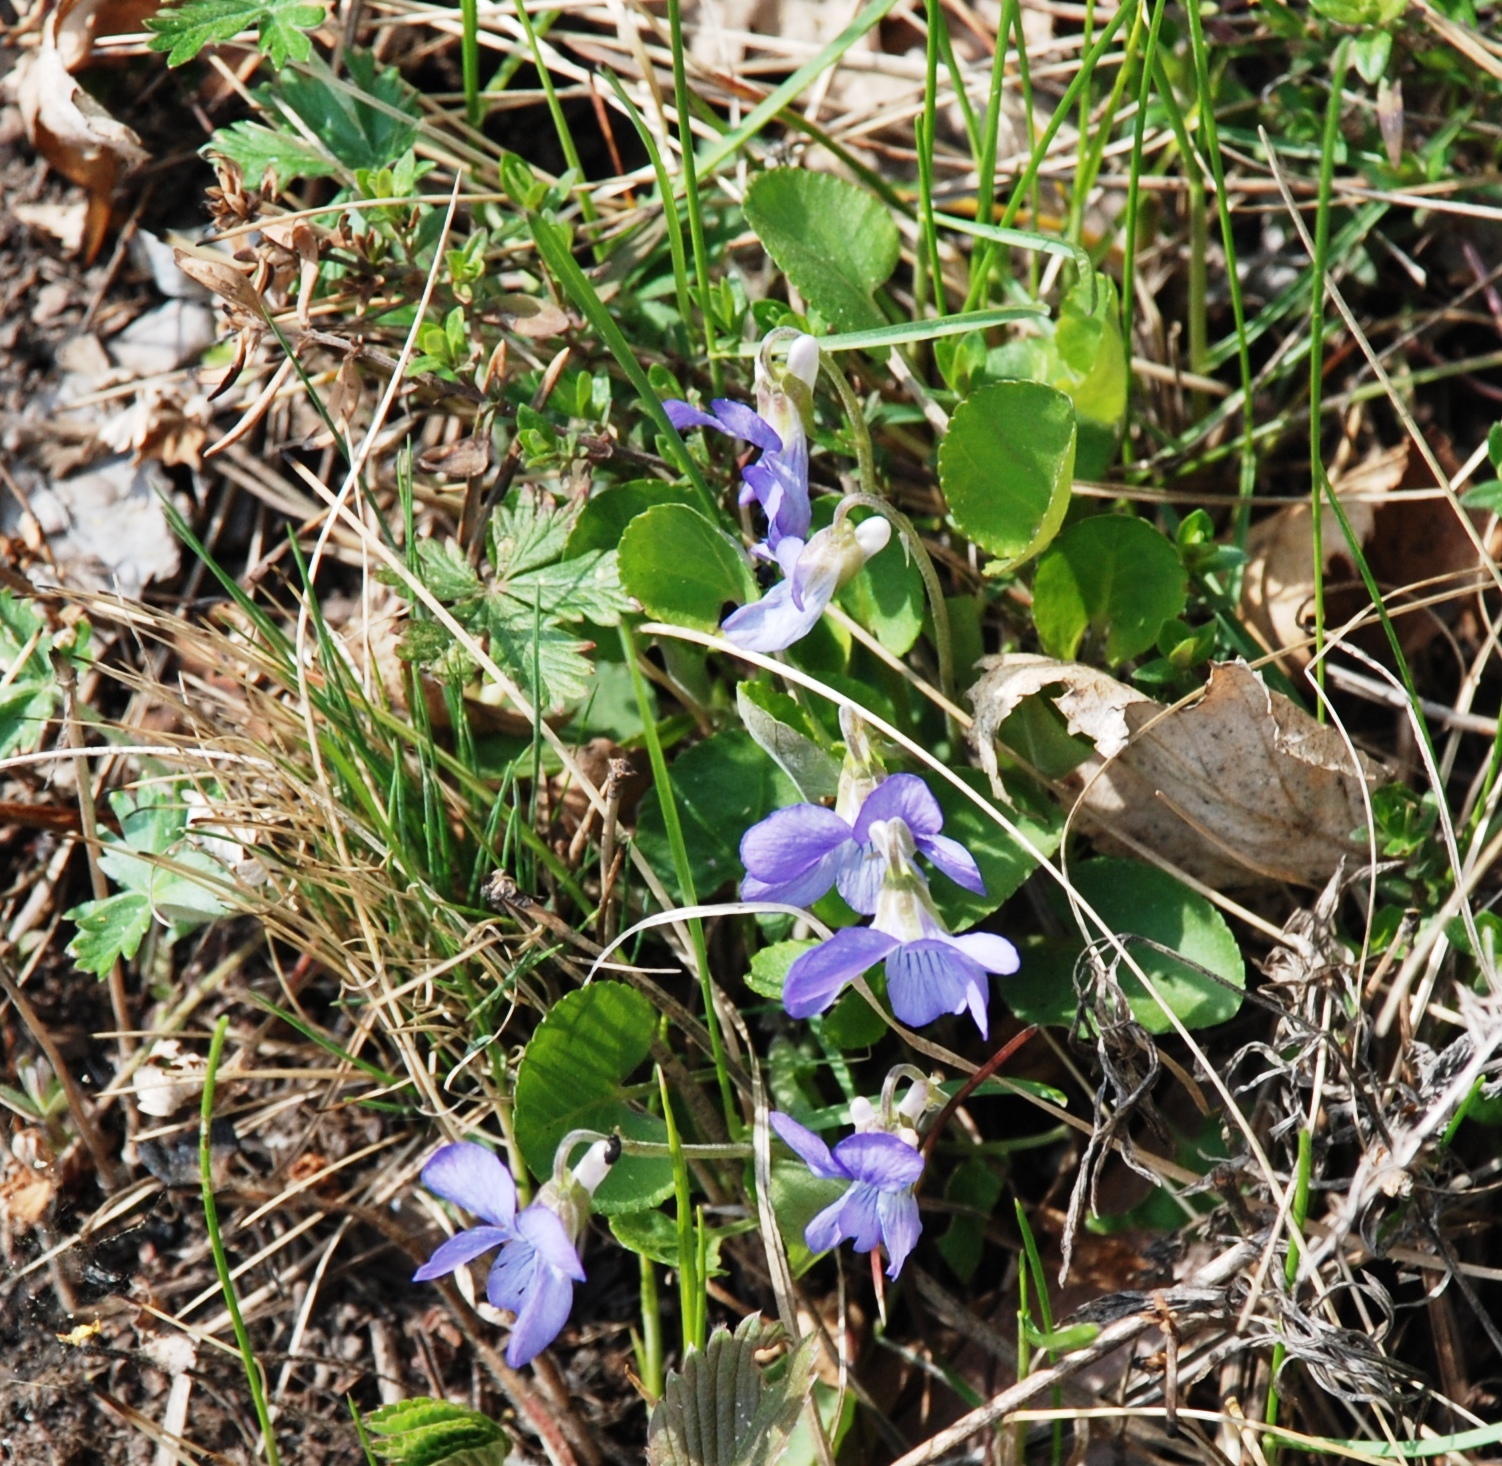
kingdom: Plantae
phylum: Tracheophyta
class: Magnoliopsida
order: Malpighiales
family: Violaceae
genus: Viola
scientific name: Viola rupestris
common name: Teesdale violet
